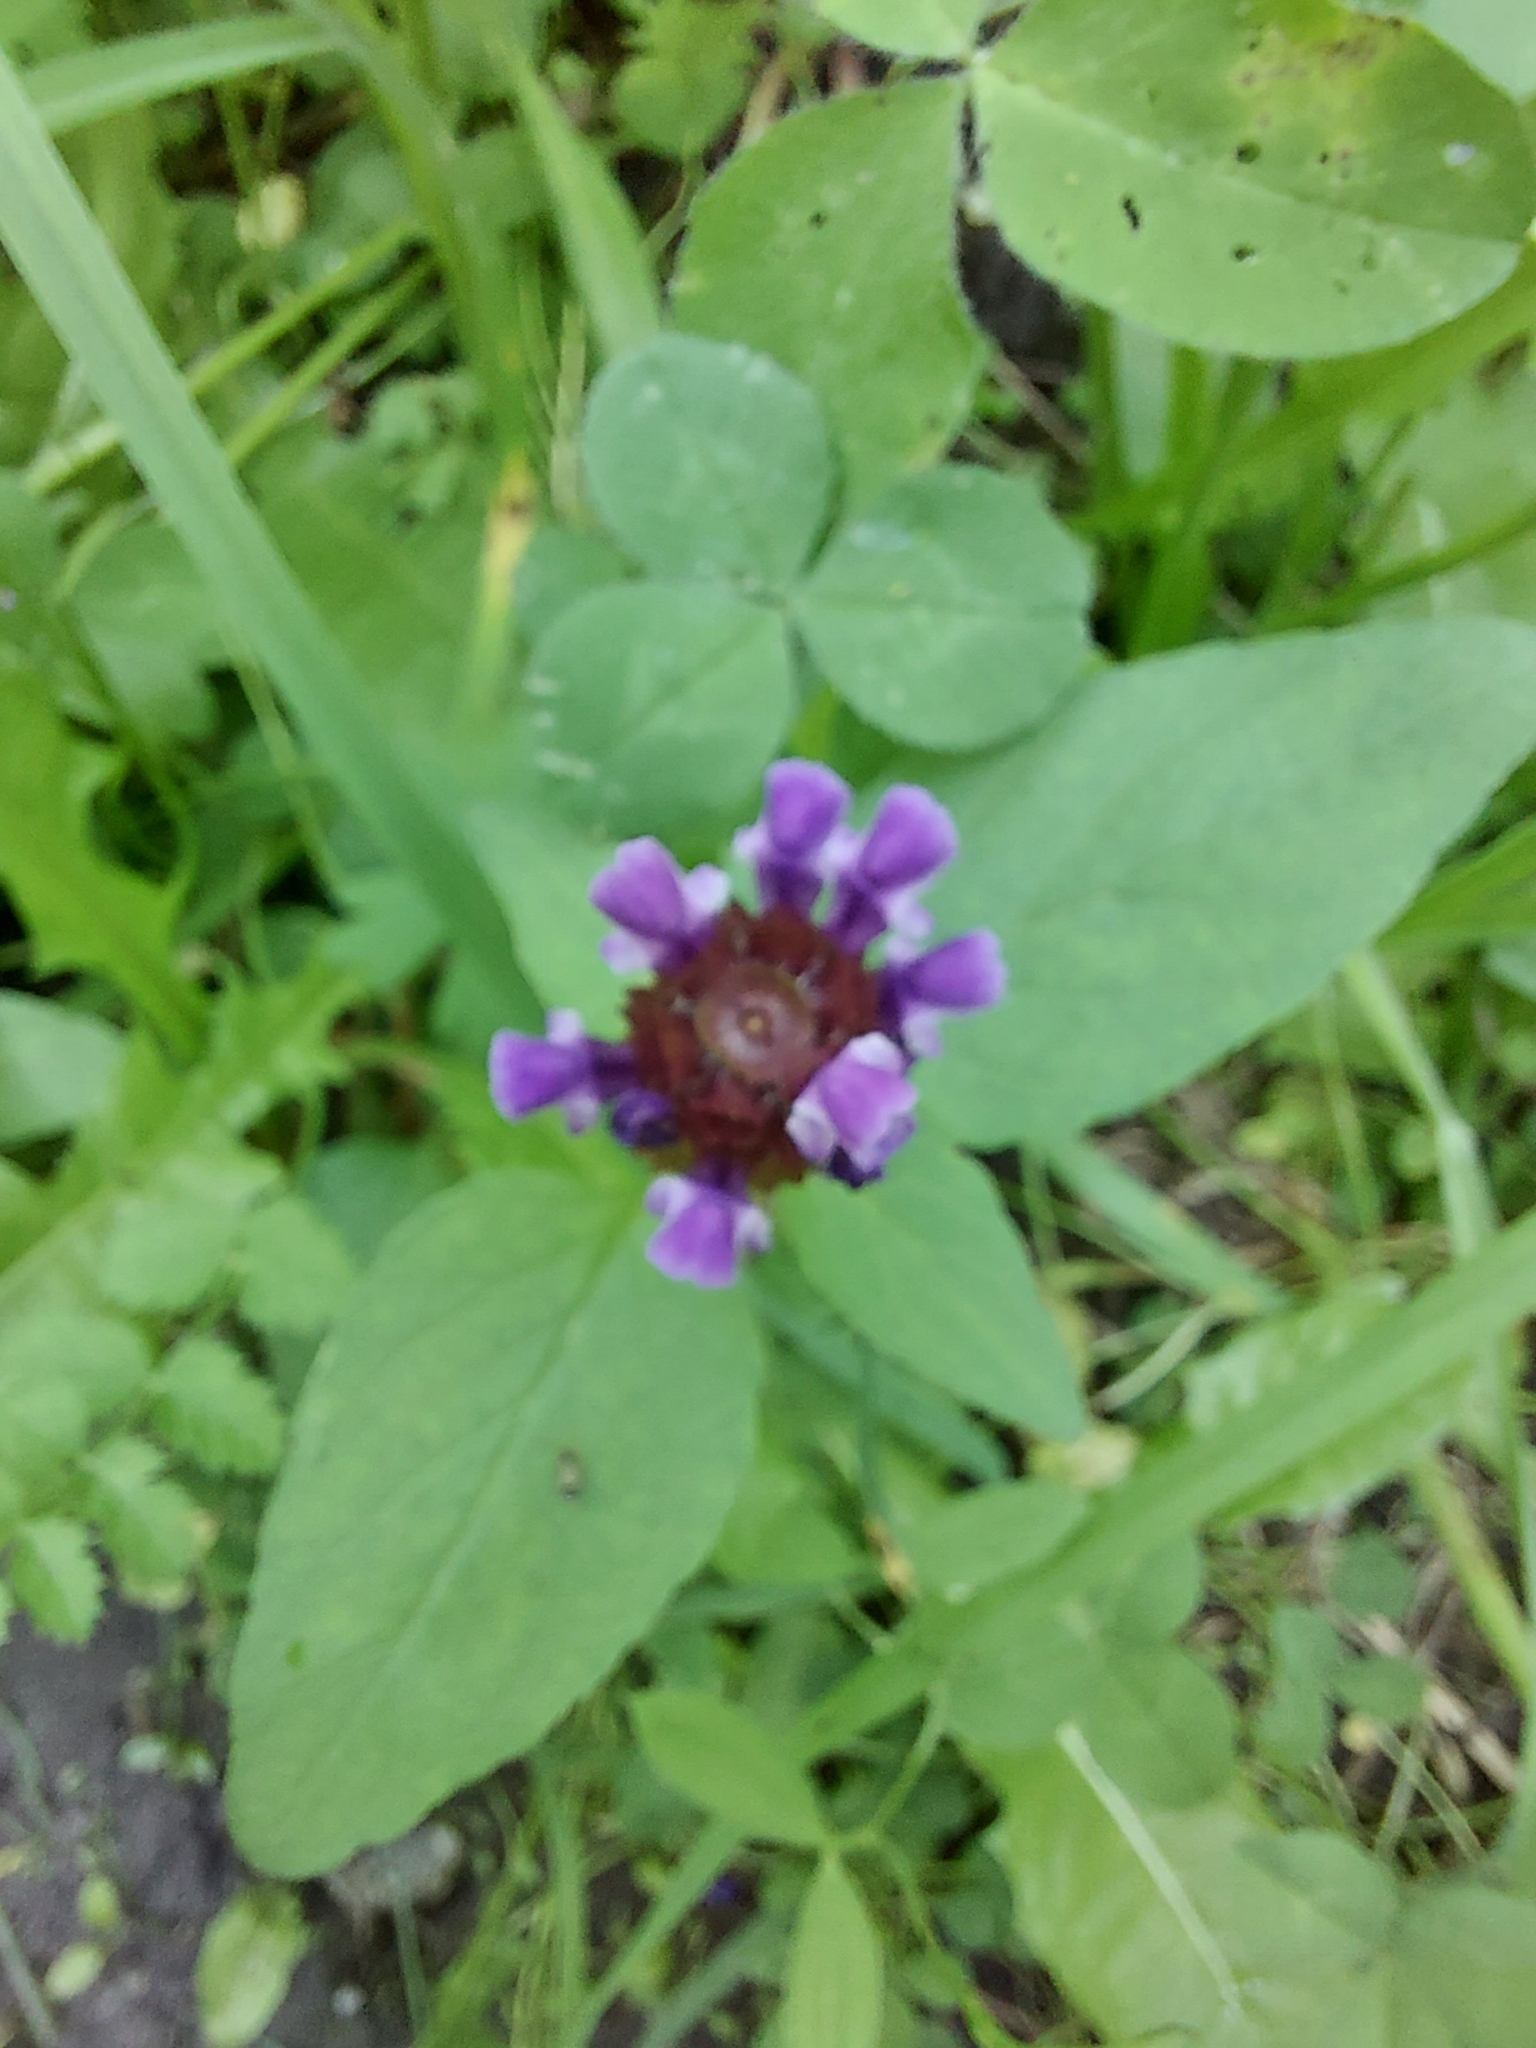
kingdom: Plantae
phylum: Tracheophyta
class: Magnoliopsida
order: Lamiales
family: Lamiaceae
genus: Prunella
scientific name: Prunella vulgaris
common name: Heal-all
